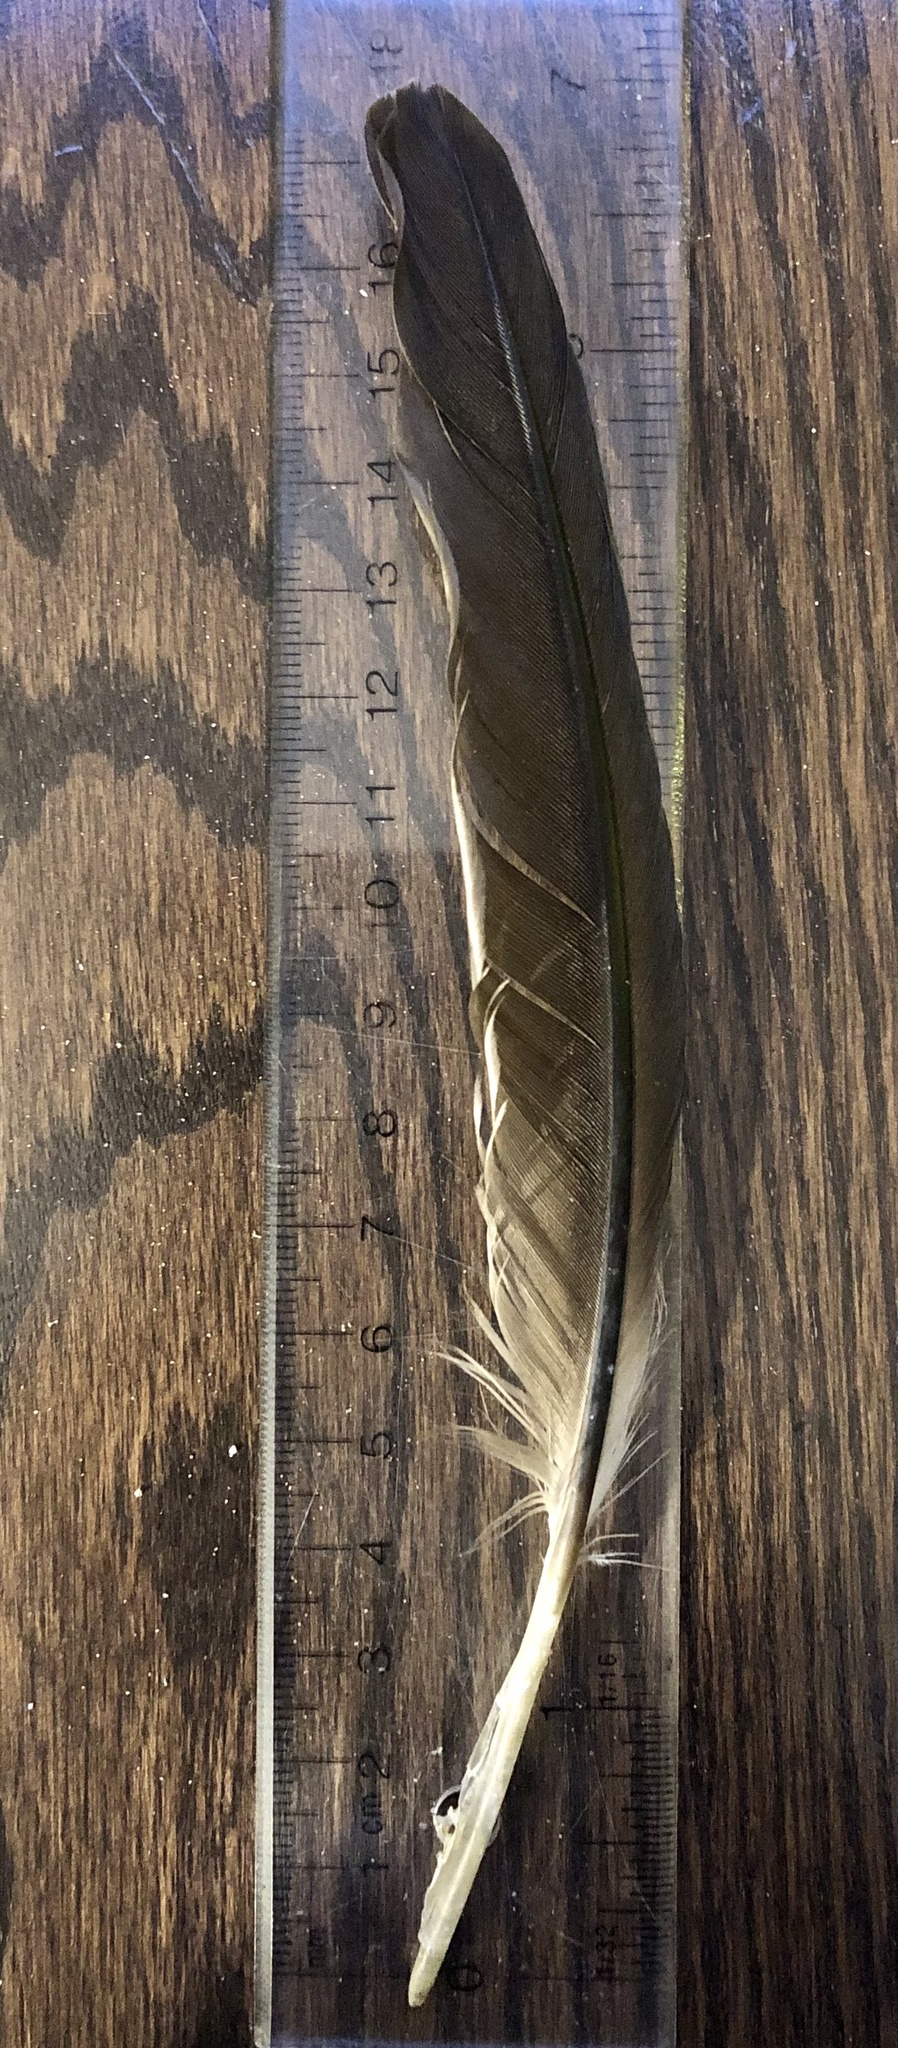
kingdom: Animalia
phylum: Chordata
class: Aves
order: Suliformes
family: Phalacrocoracidae
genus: Phalacrocorax
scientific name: Phalacrocorax auritus
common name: Double-crested cormorant
